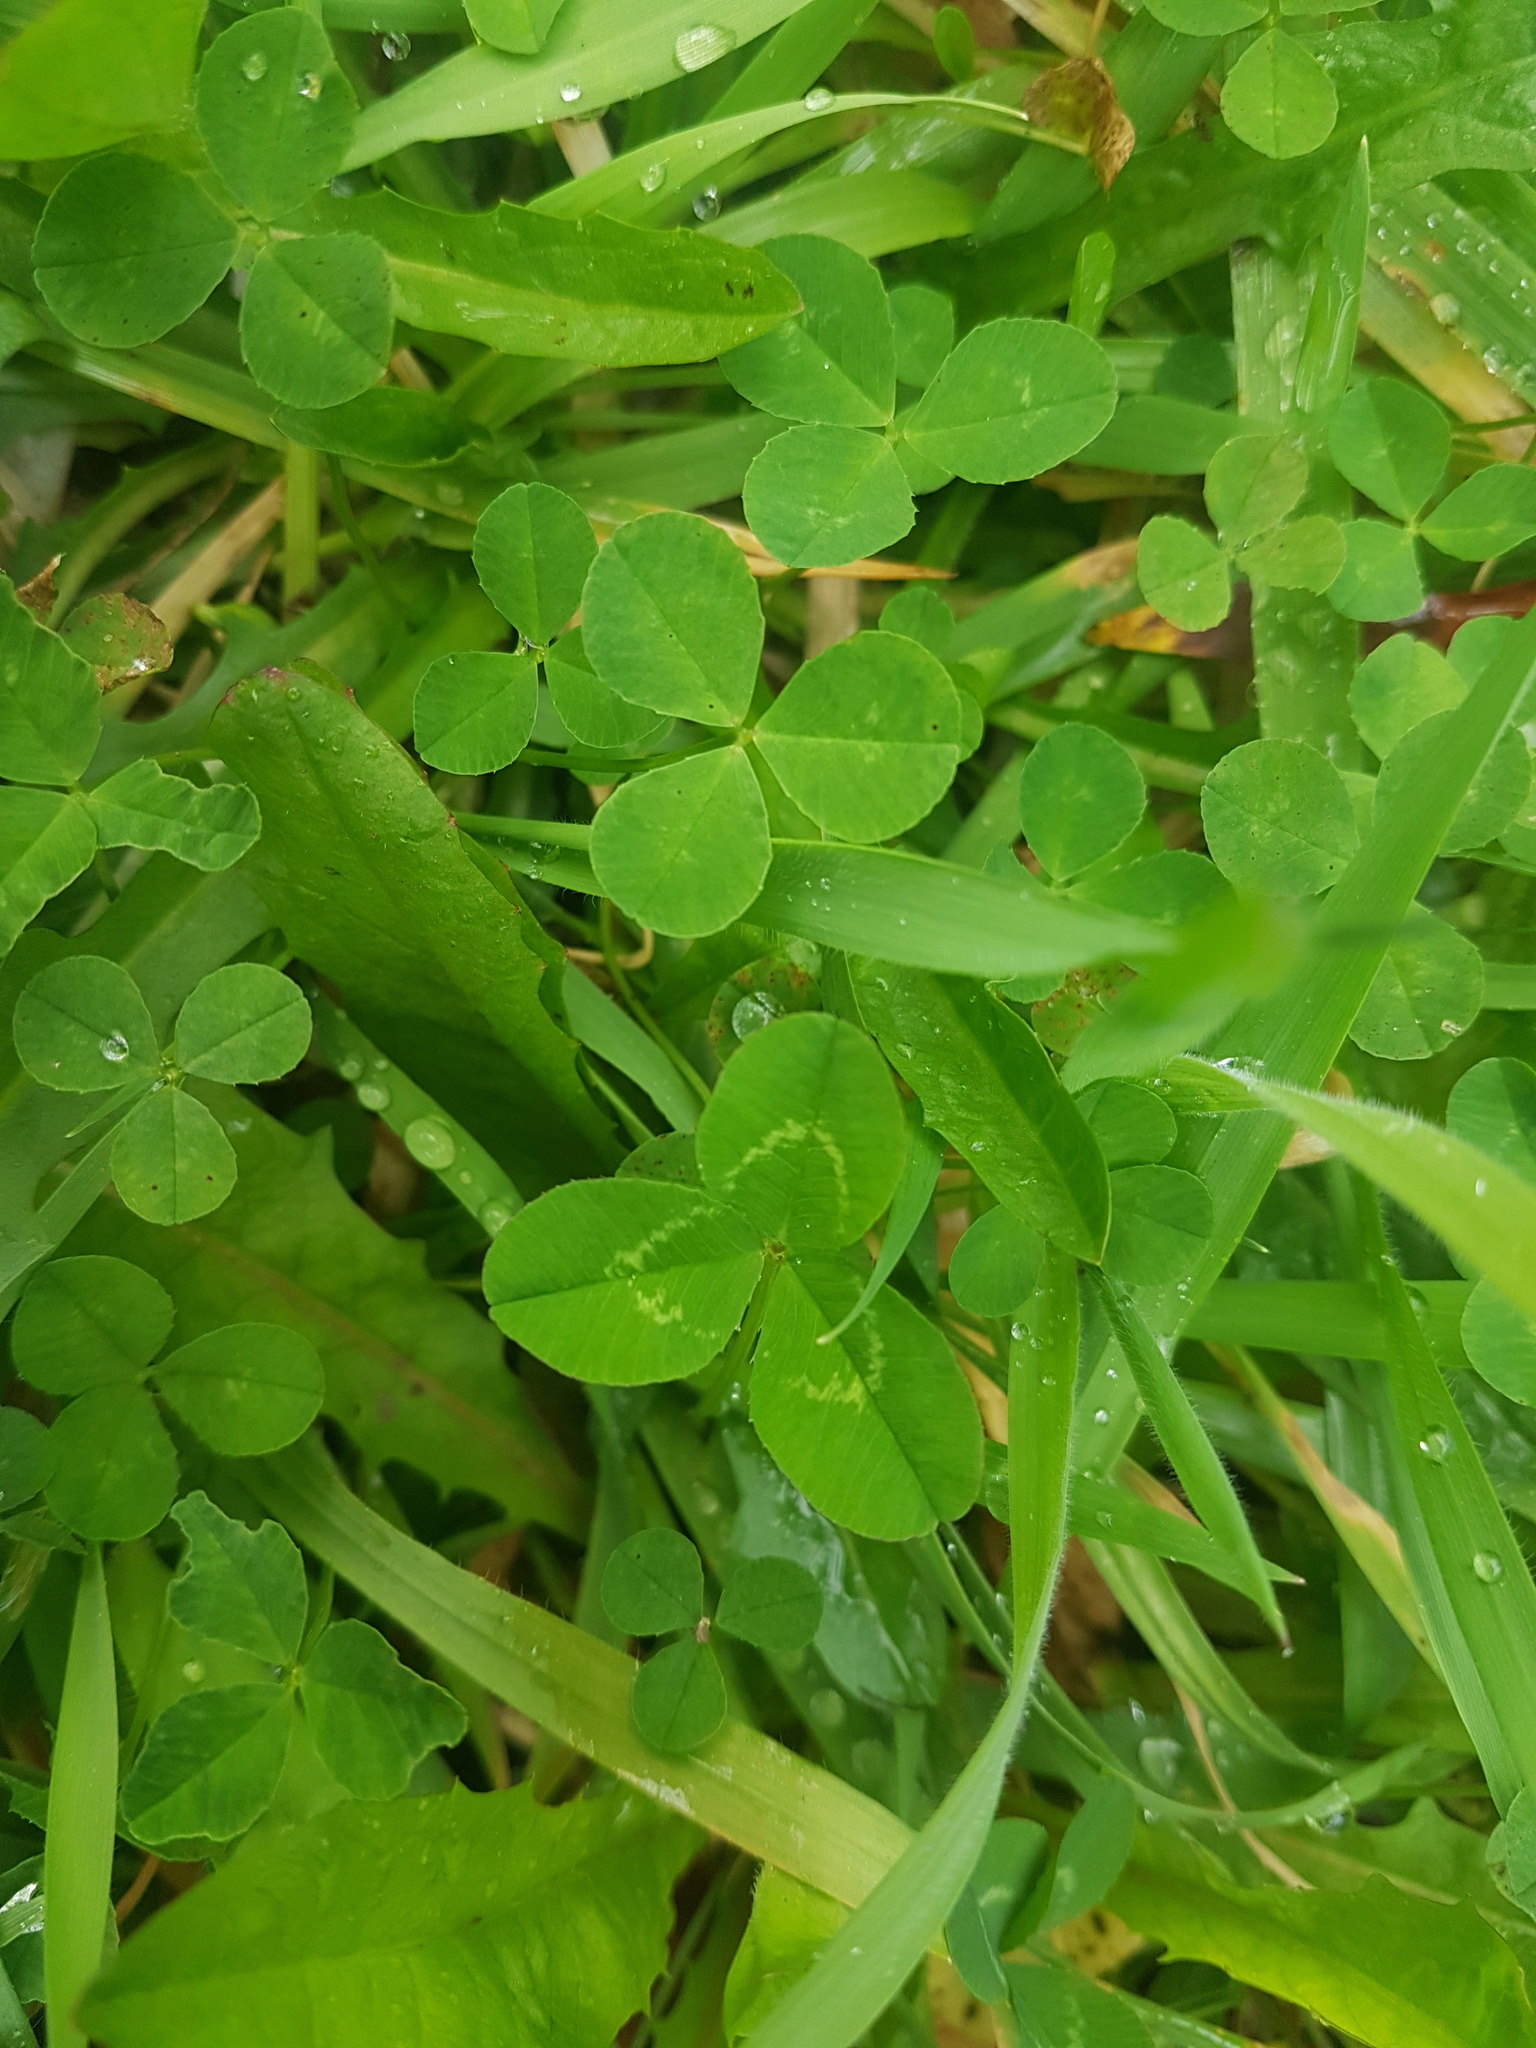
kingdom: Plantae
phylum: Tracheophyta
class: Magnoliopsida
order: Fabales
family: Fabaceae
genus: Trifolium
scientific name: Trifolium repens
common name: White clover
